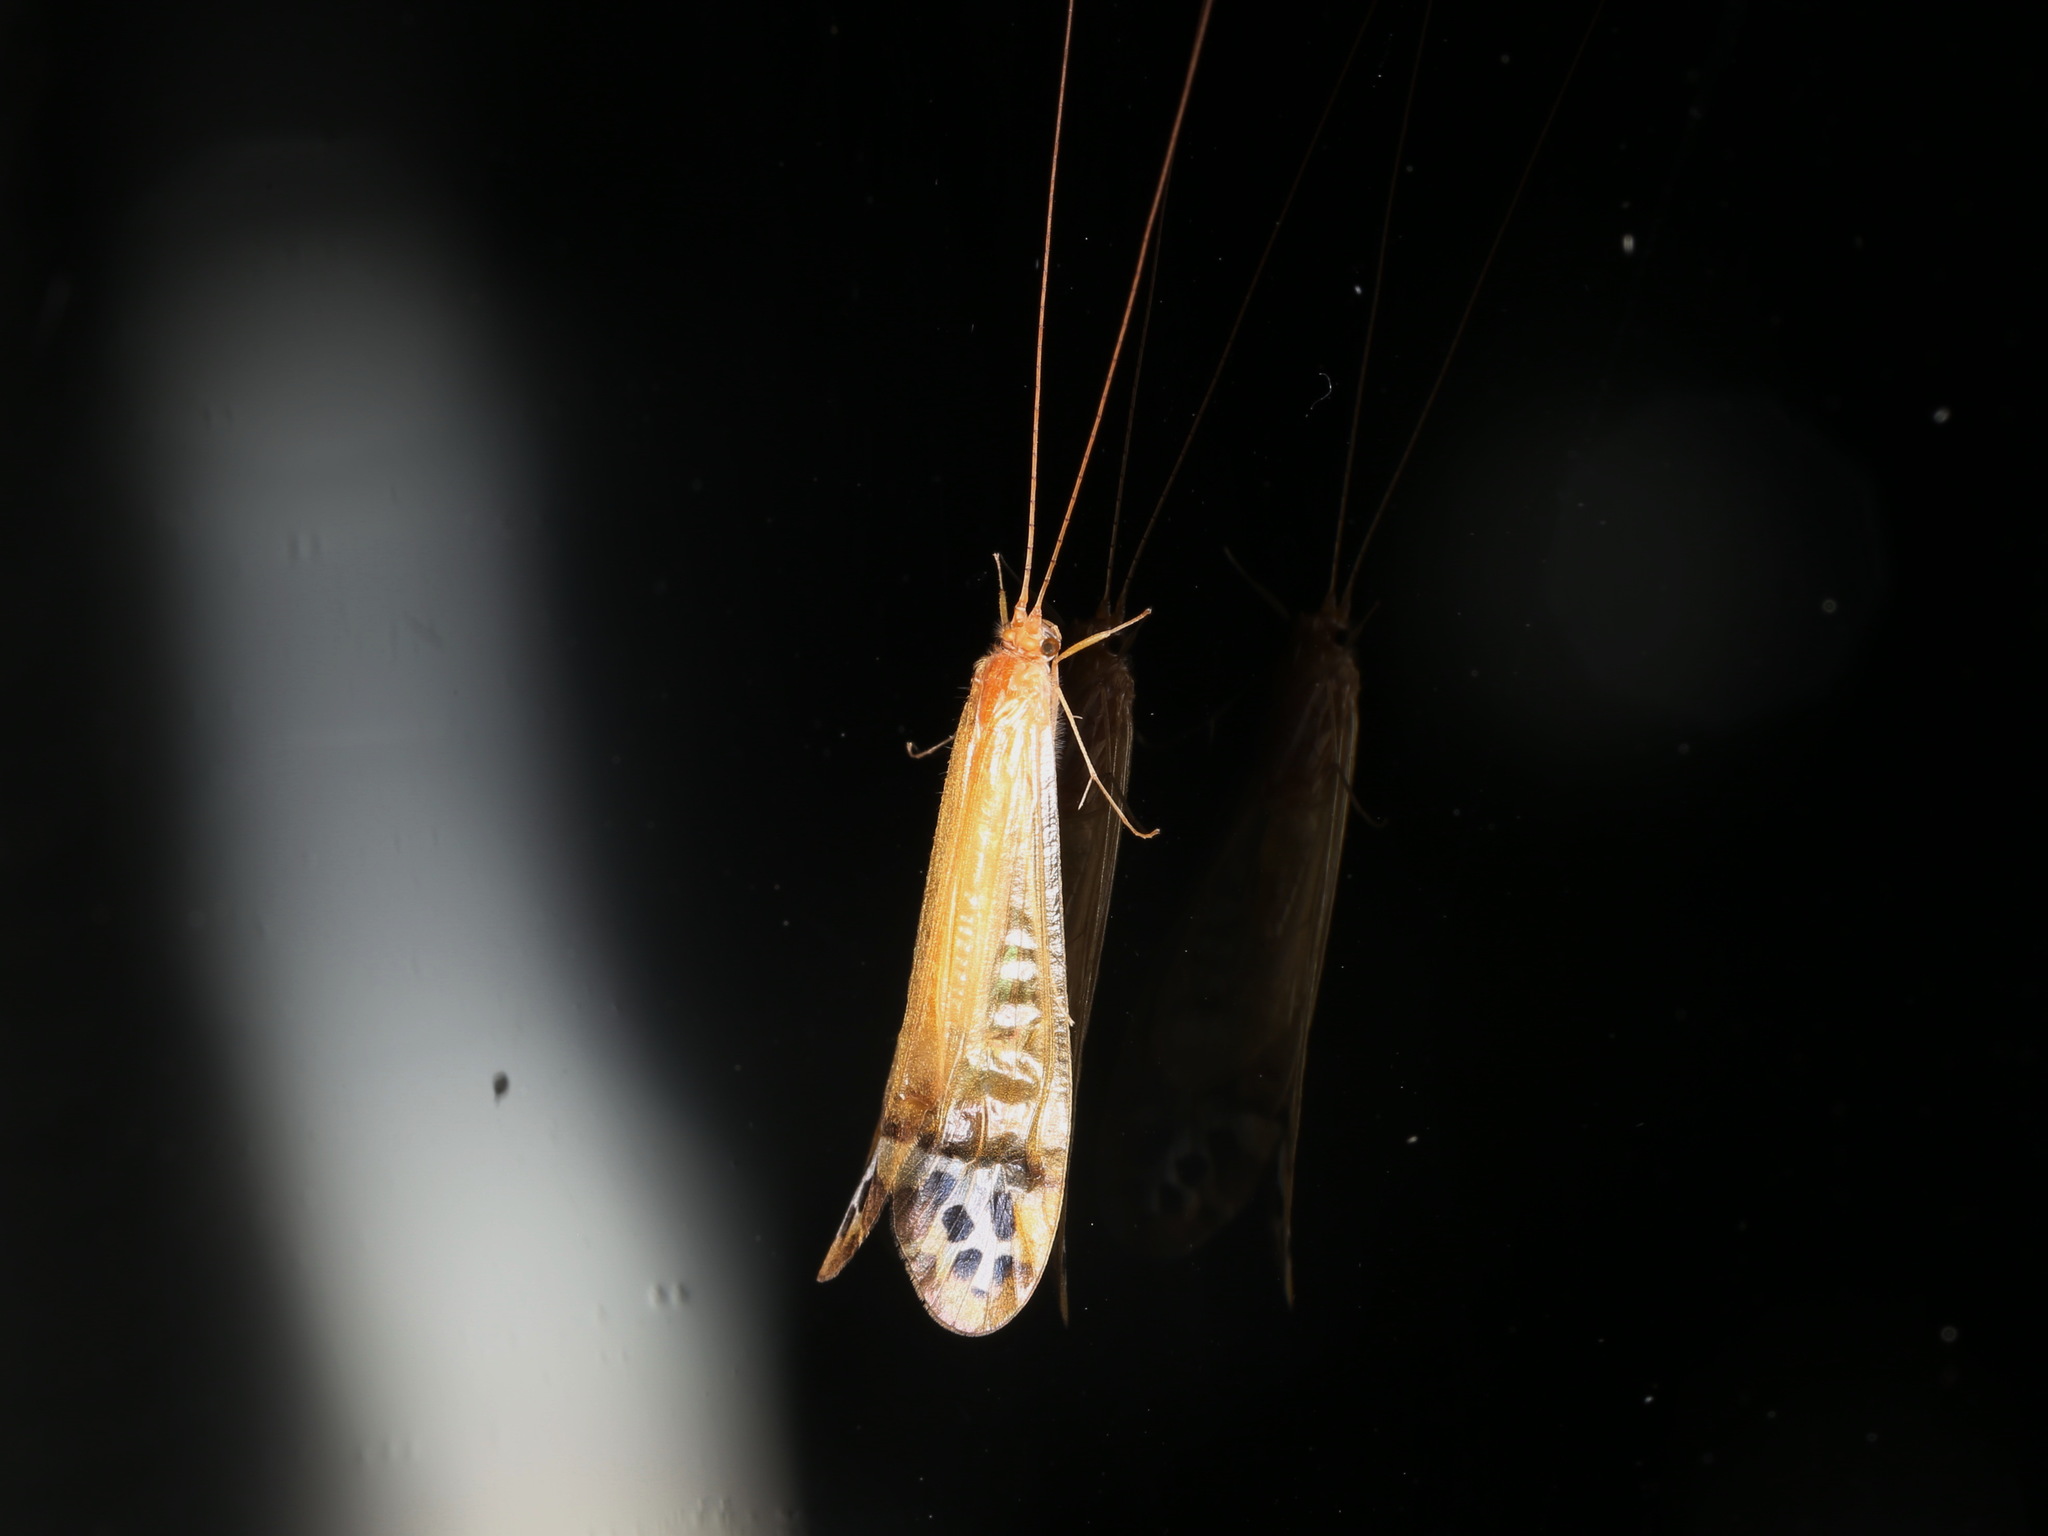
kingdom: Animalia
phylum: Arthropoda
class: Insecta
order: Trichoptera
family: Hydropsychidae
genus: Amphipsyche
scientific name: Amphipsyche gratiosa
